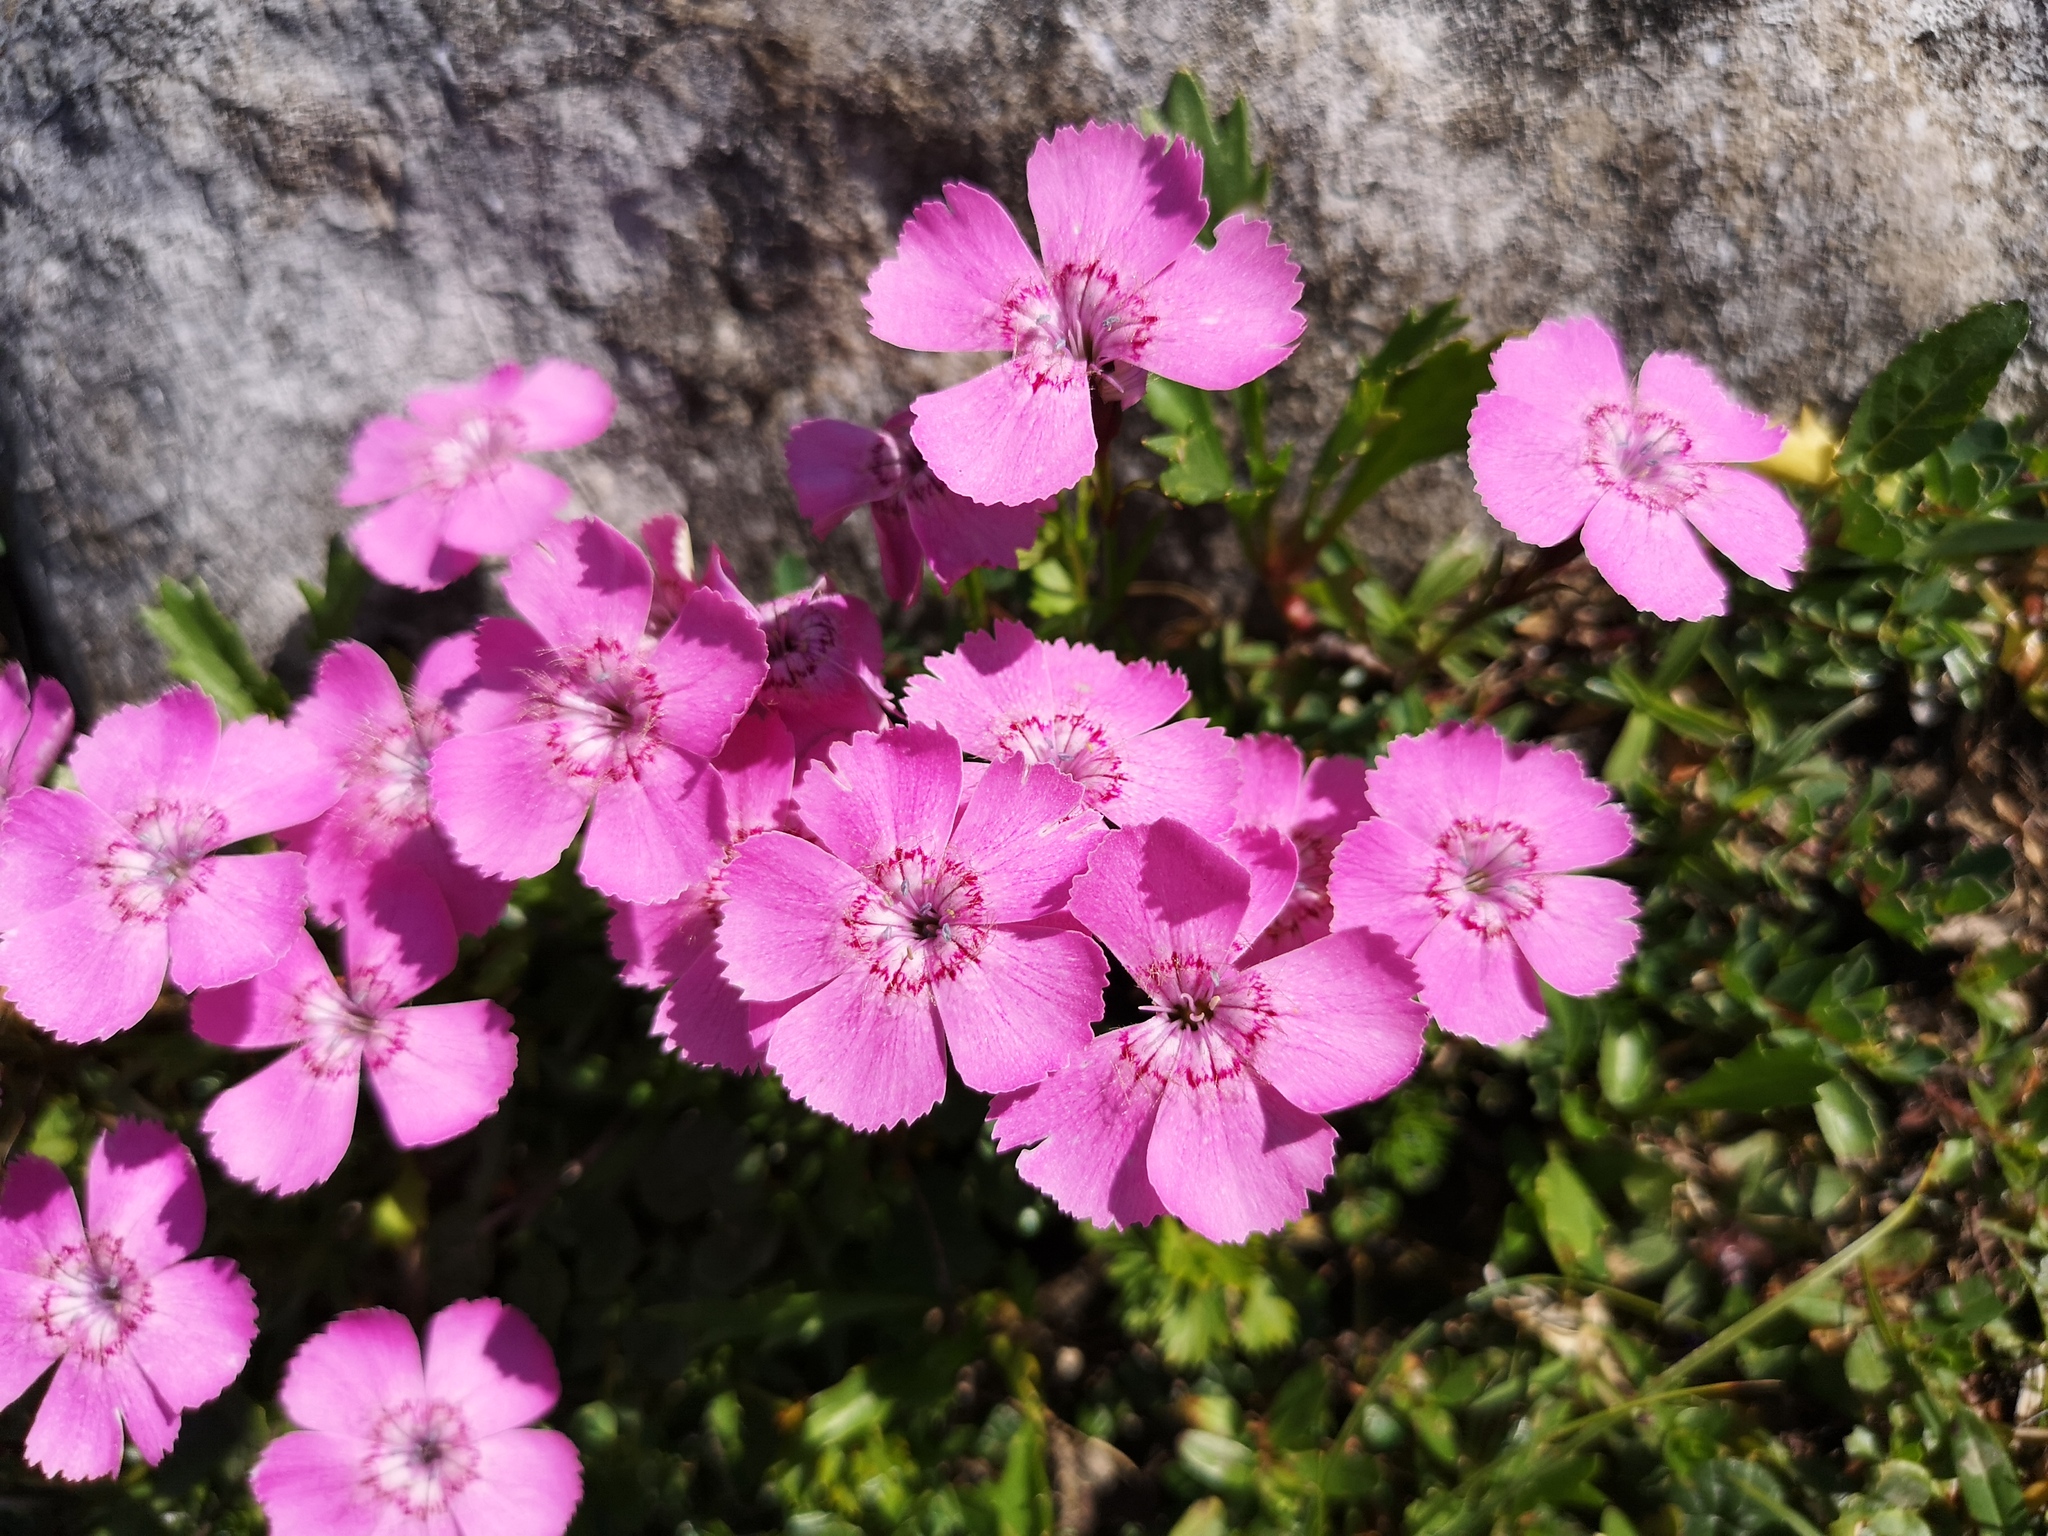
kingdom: Plantae
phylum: Tracheophyta
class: Magnoliopsida
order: Caryophyllales
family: Caryophyllaceae
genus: Dianthus
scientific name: Dianthus alpinus
